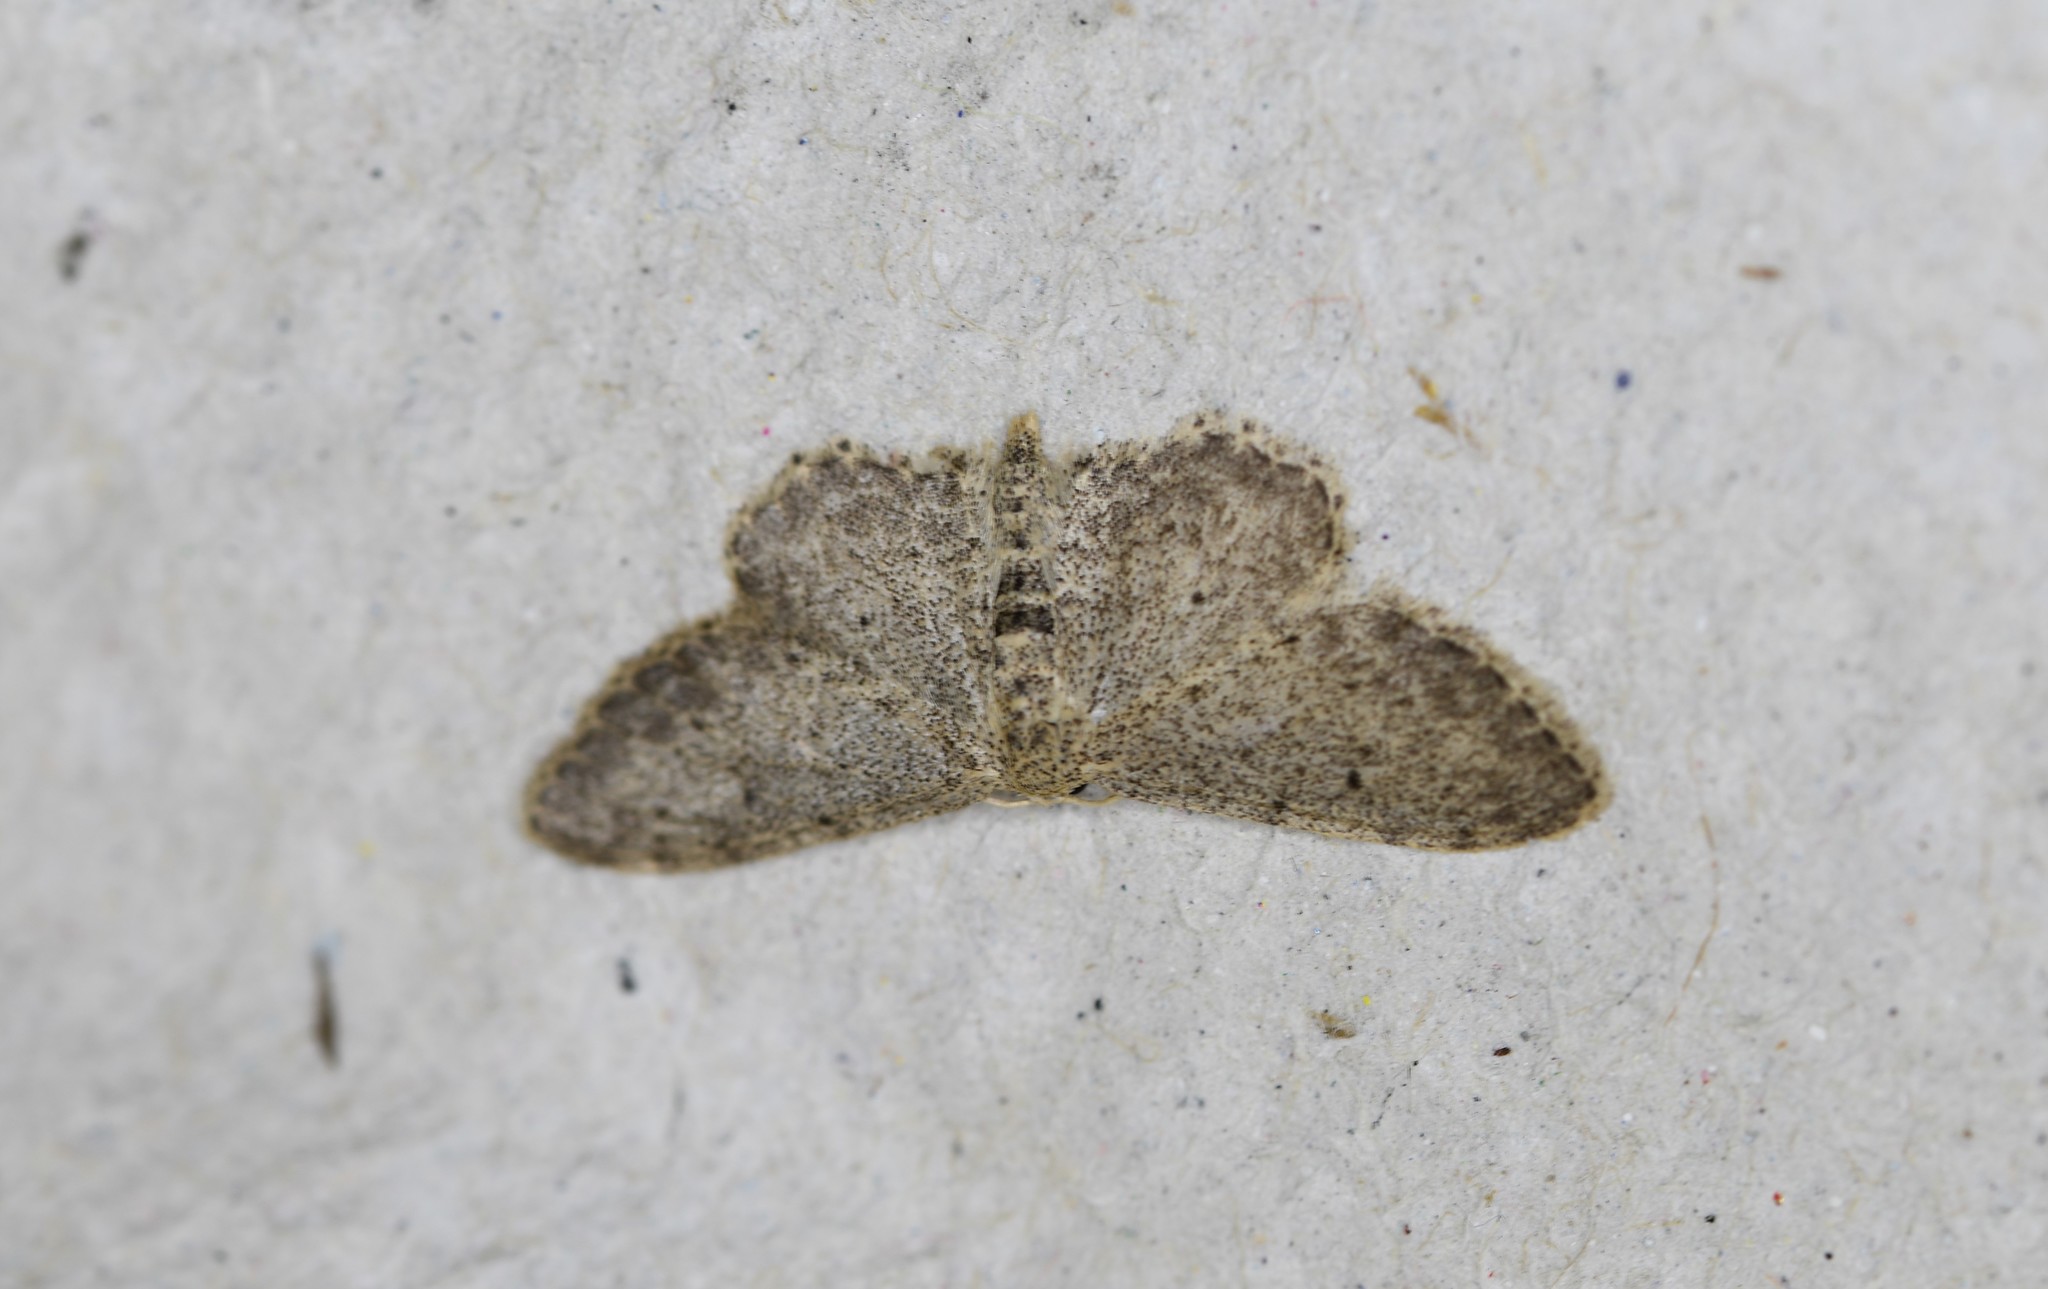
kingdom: Animalia
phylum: Arthropoda
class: Insecta
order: Lepidoptera
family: Geometridae
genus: Idaea
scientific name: Idaea incisaria
